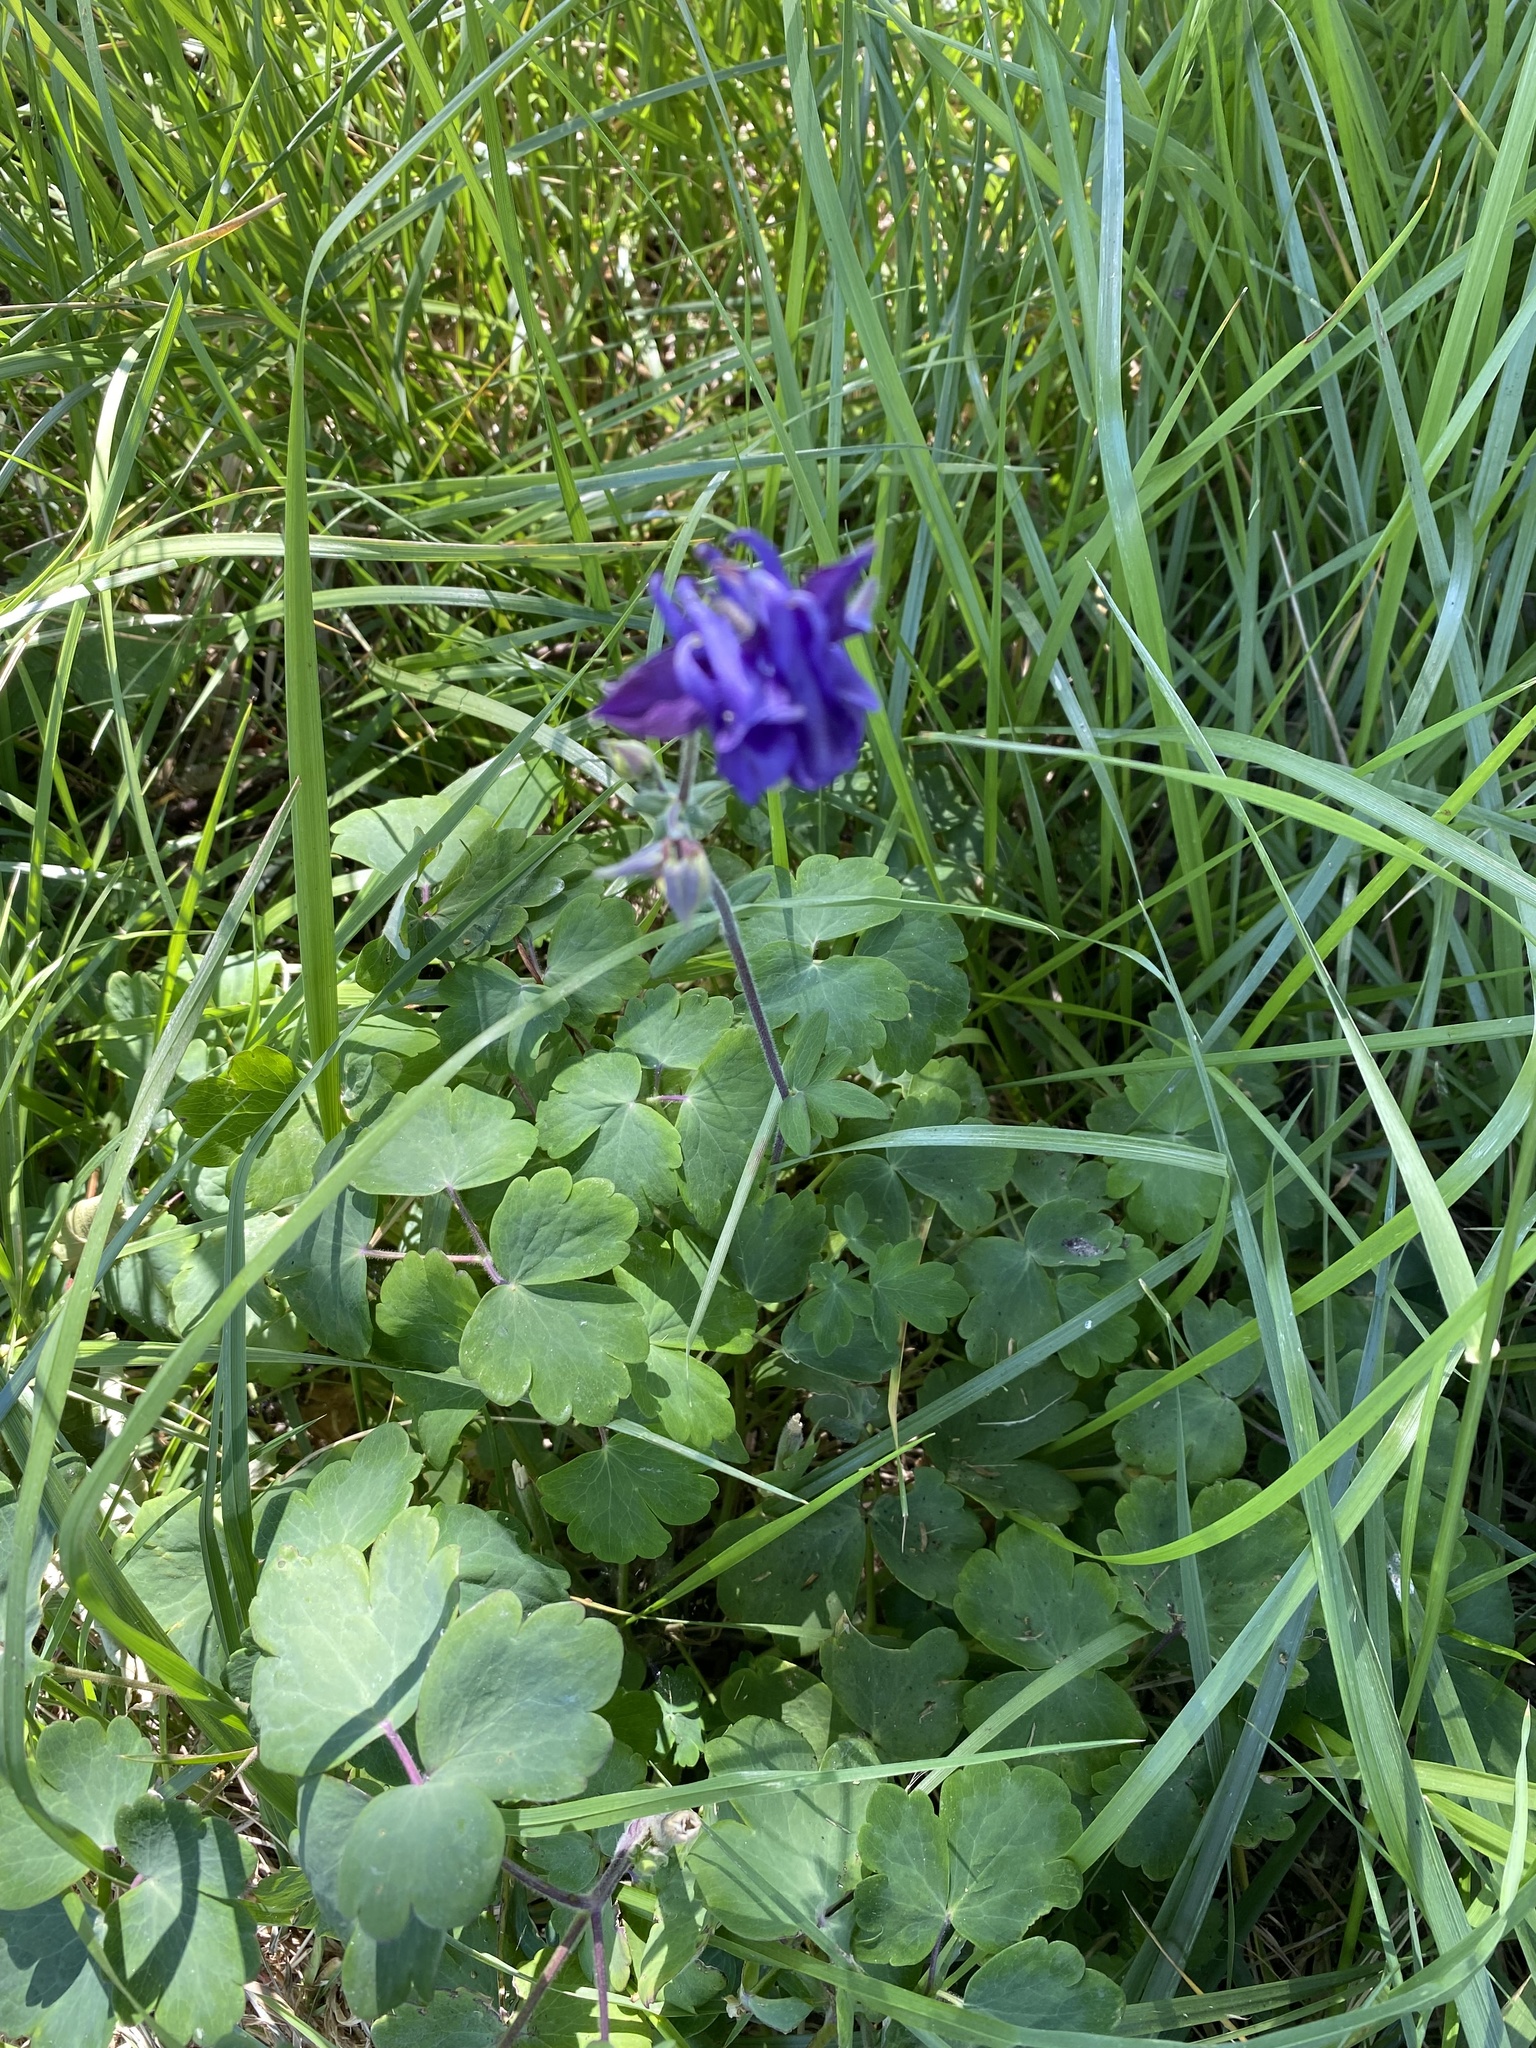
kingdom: Plantae
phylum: Tracheophyta
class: Magnoliopsida
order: Ranunculales
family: Ranunculaceae
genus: Aquilegia
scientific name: Aquilegia vulgaris
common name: Columbine
